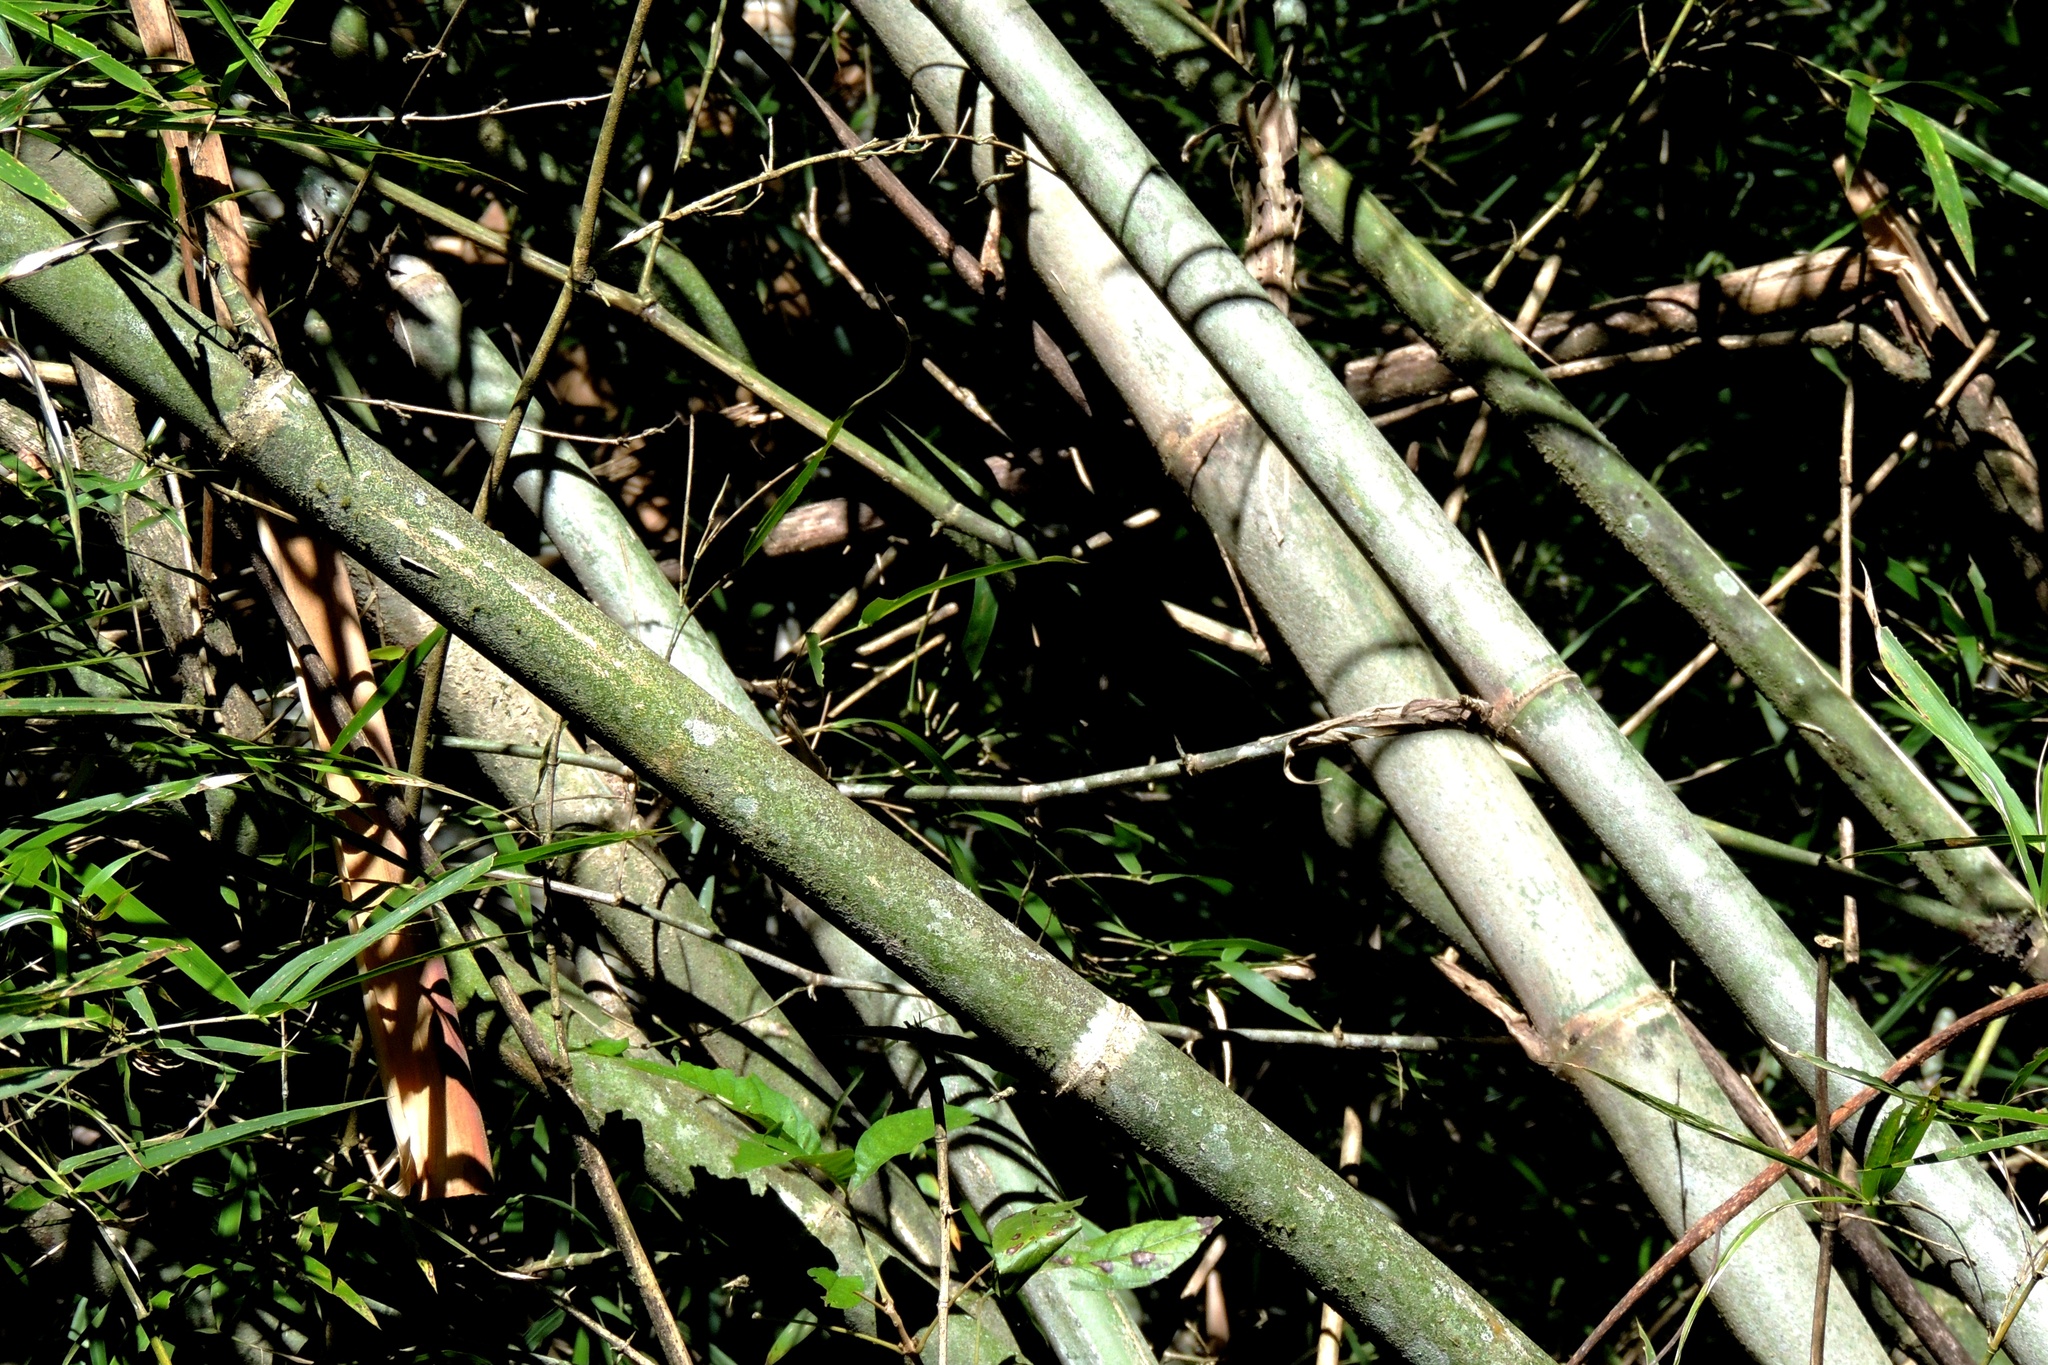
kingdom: Plantae
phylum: Tracheophyta
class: Liliopsida
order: Poales
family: Poaceae
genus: Guadua
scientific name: Guadua trinii
